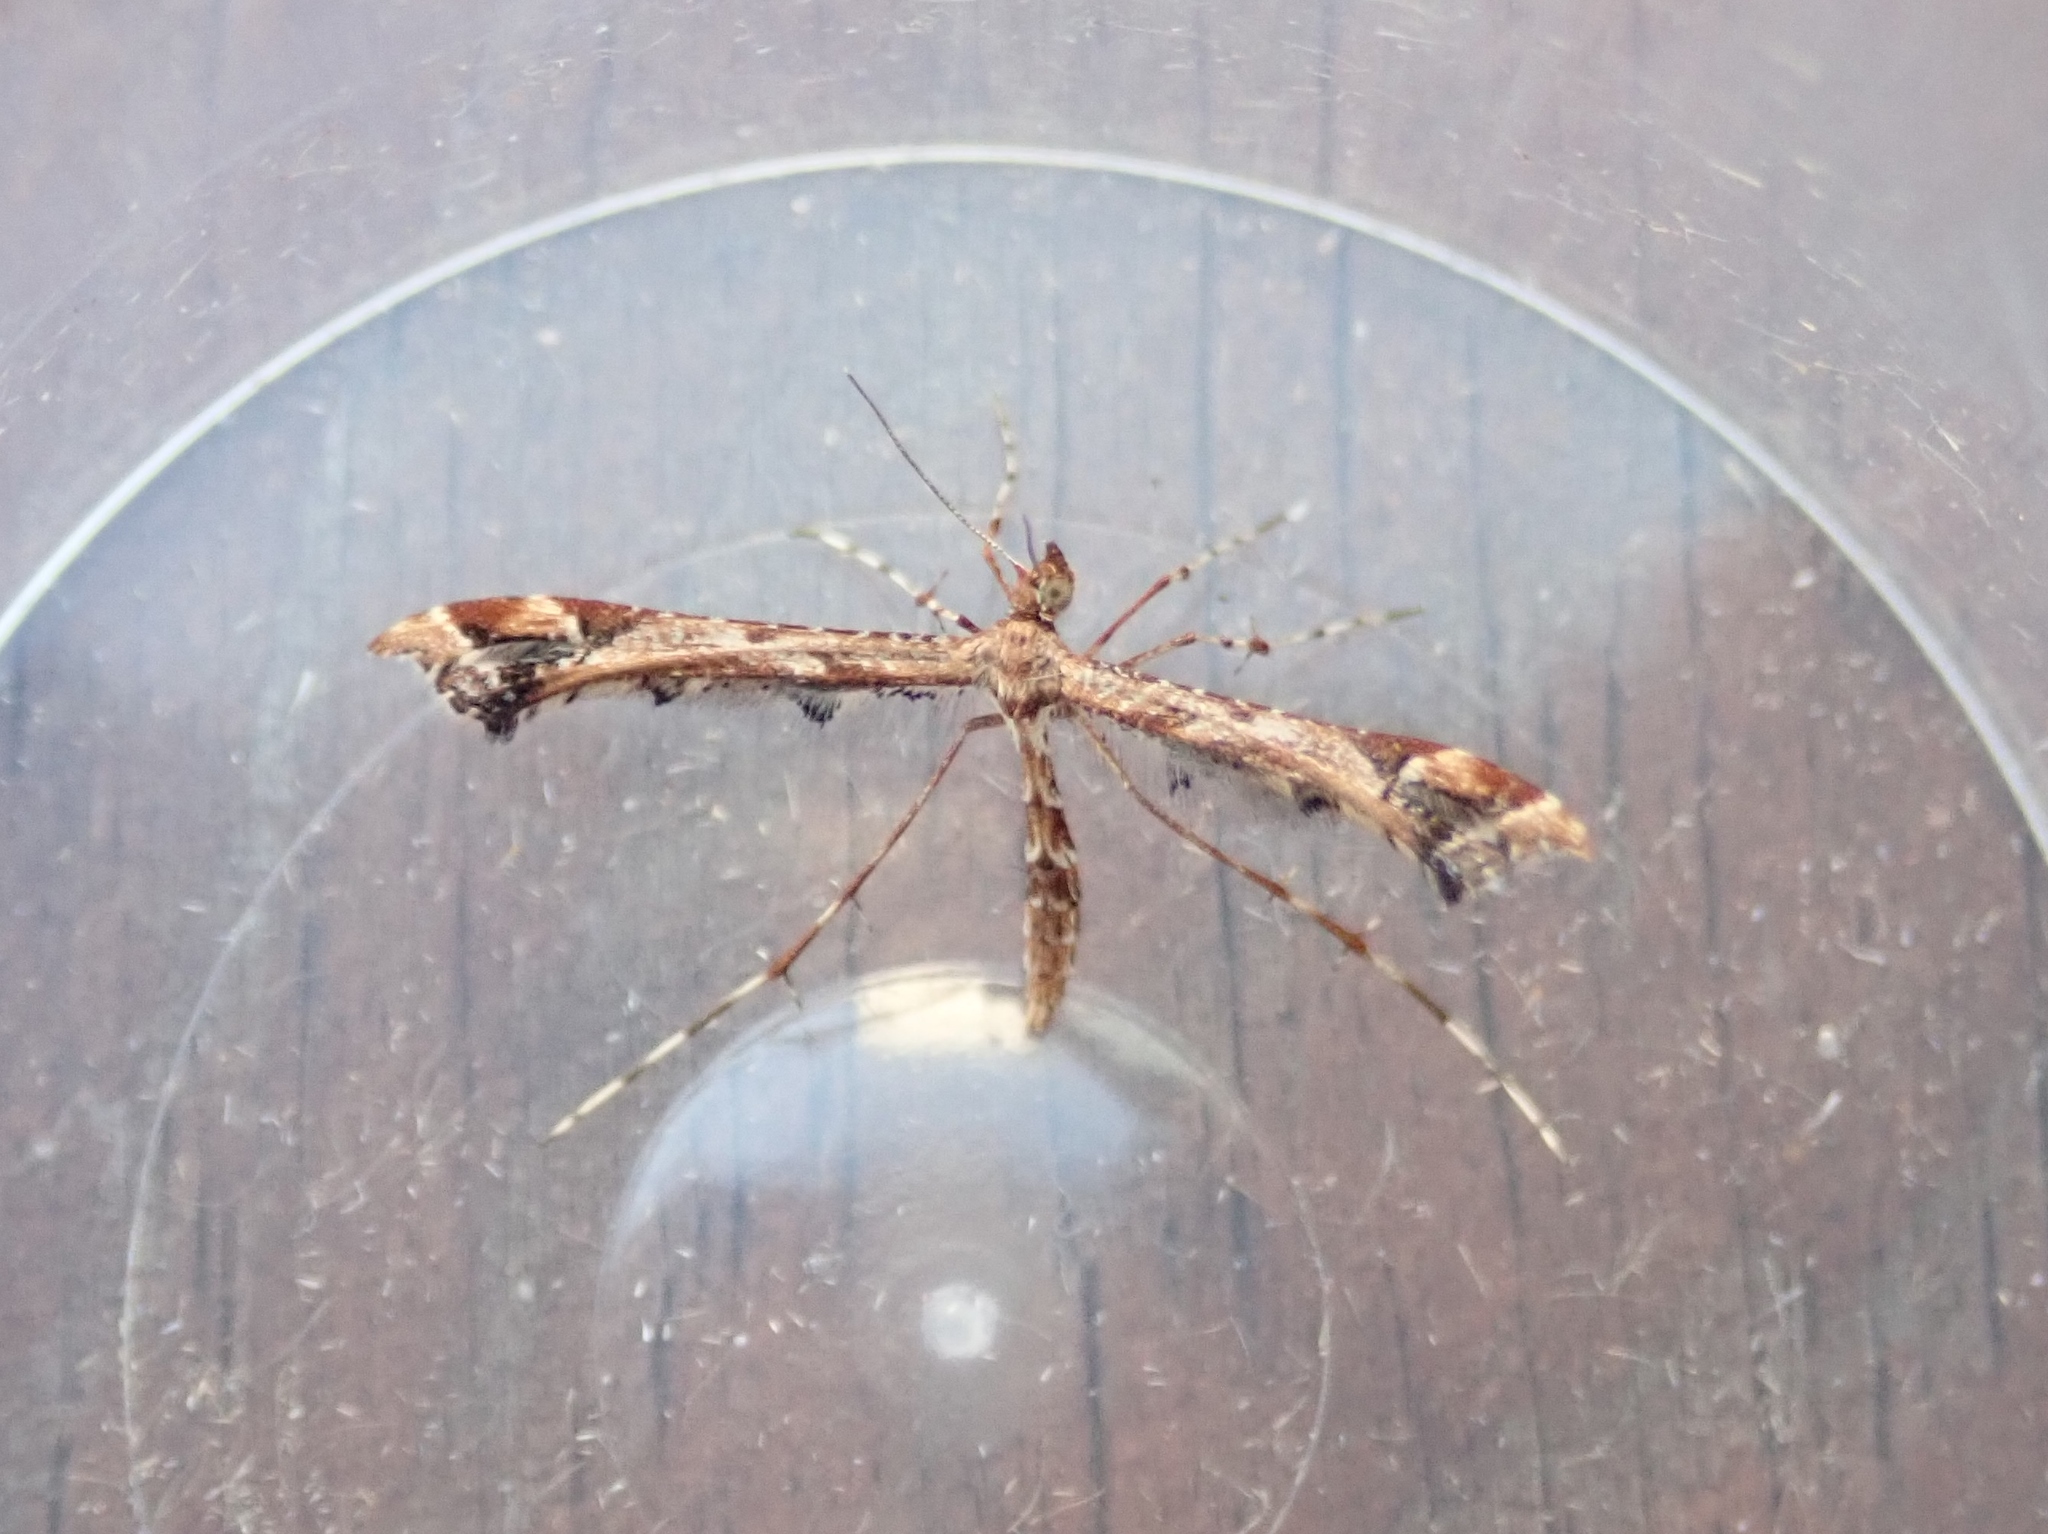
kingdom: Animalia
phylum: Arthropoda
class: Insecta
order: Lepidoptera
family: Pterophoridae
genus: Amblyptilia
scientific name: Amblyptilia acanthadactyla
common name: Beautiful plume
